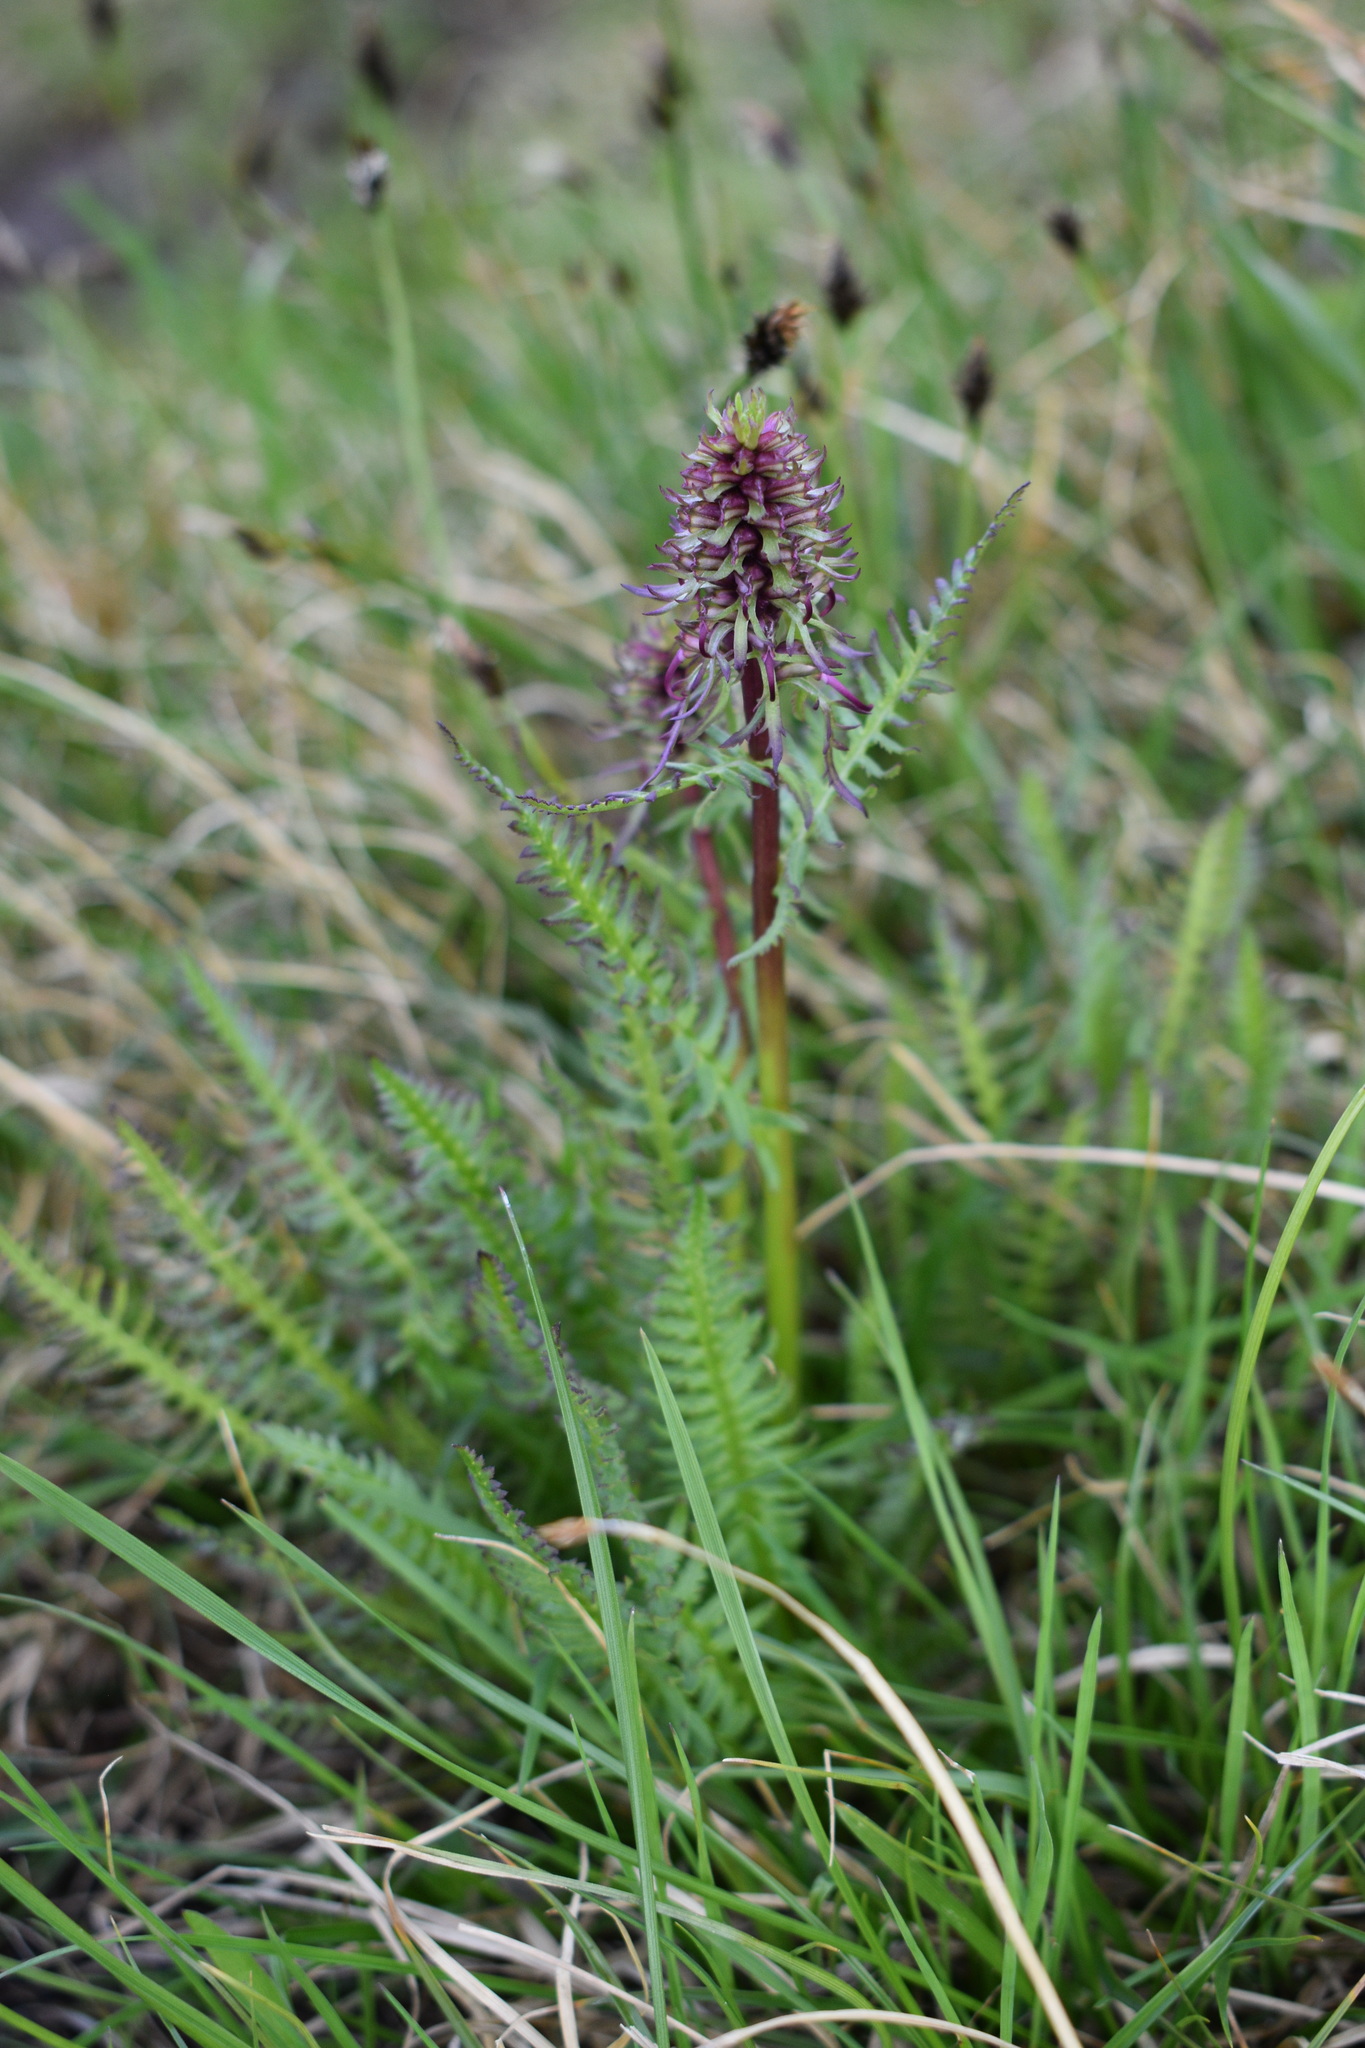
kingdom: Plantae
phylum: Tracheophyta
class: Magnoliopsida
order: Lamiales
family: Orobanchaceae
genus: Pedicularis
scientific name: Pedicularis groenlandica
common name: Elephant's-head
